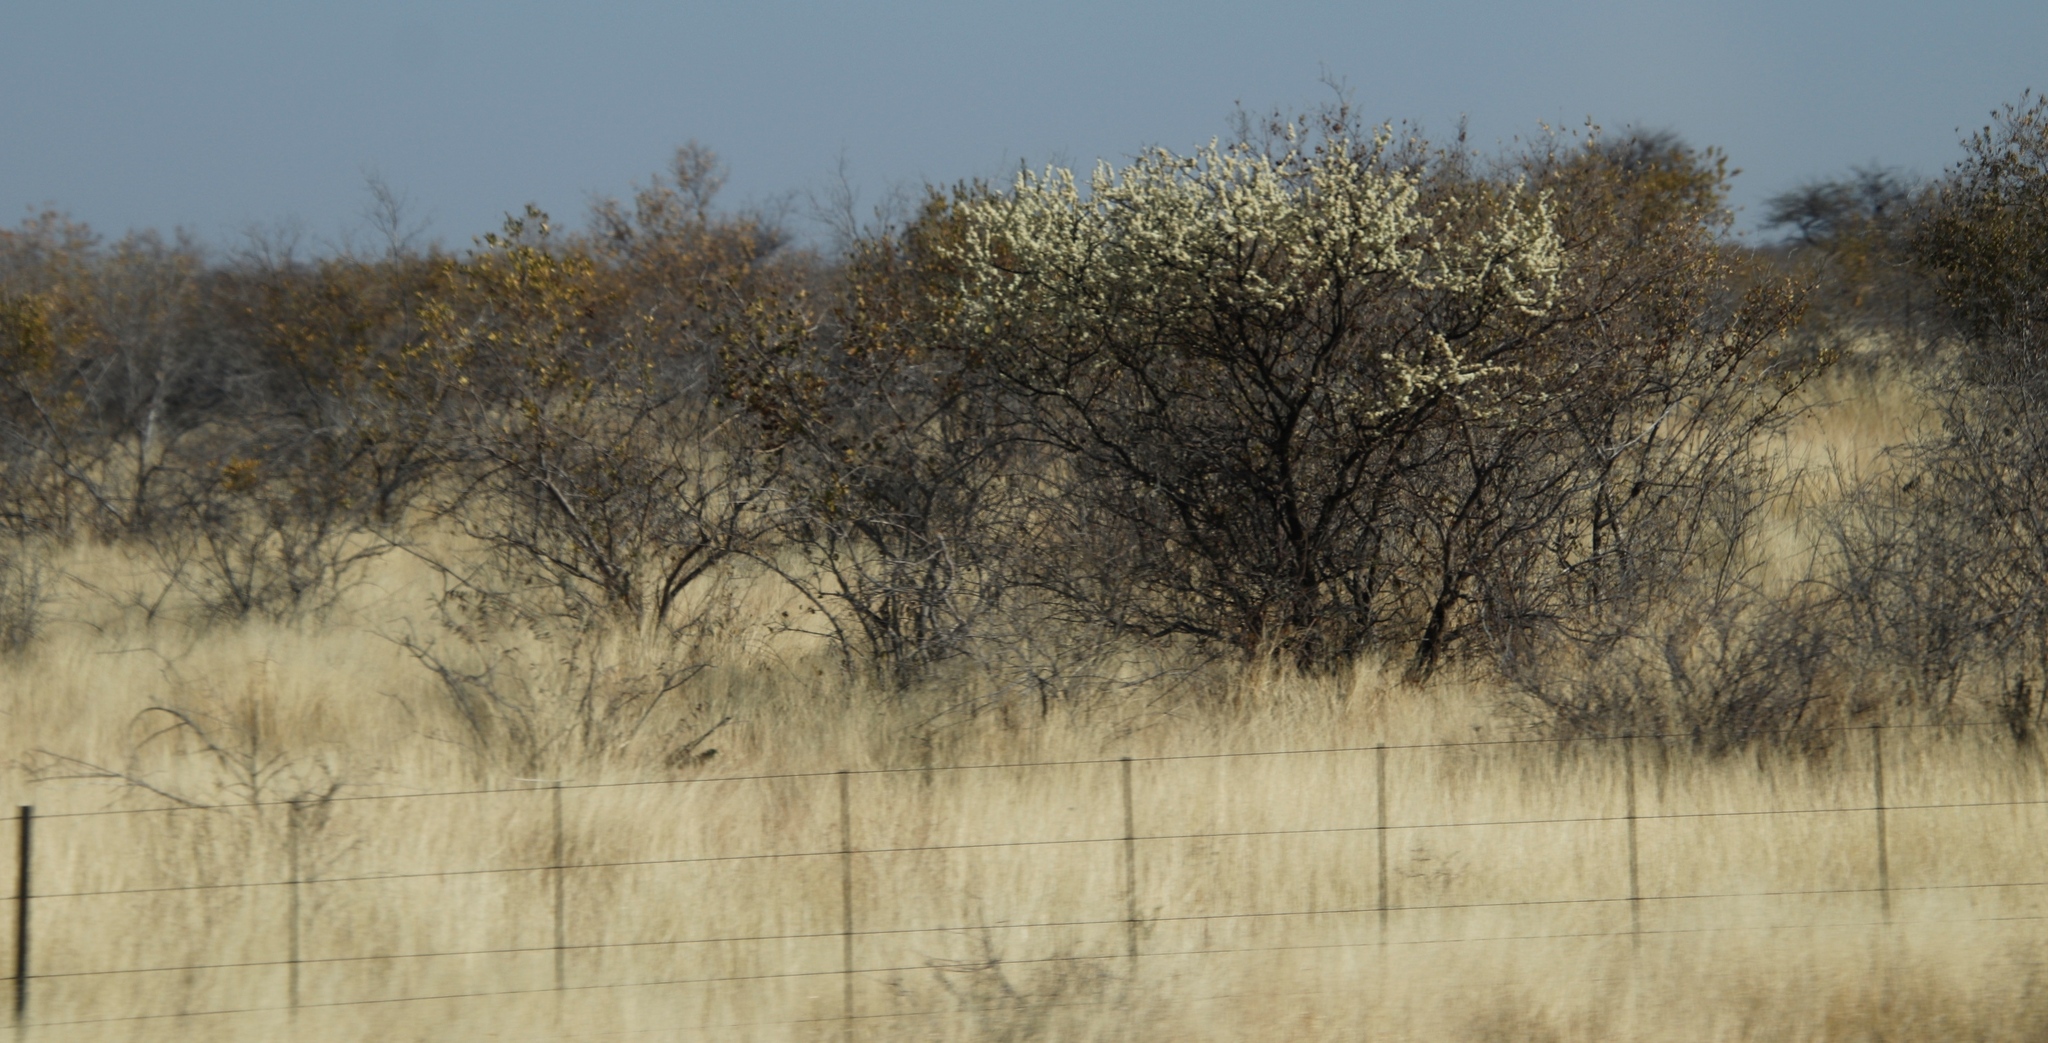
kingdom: Plantae
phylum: Tracheophyta
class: Magnoliopsida
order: Fabales
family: Fabaceae
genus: Senegalia
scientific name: Senegalia mellifera
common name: Hookthorn
